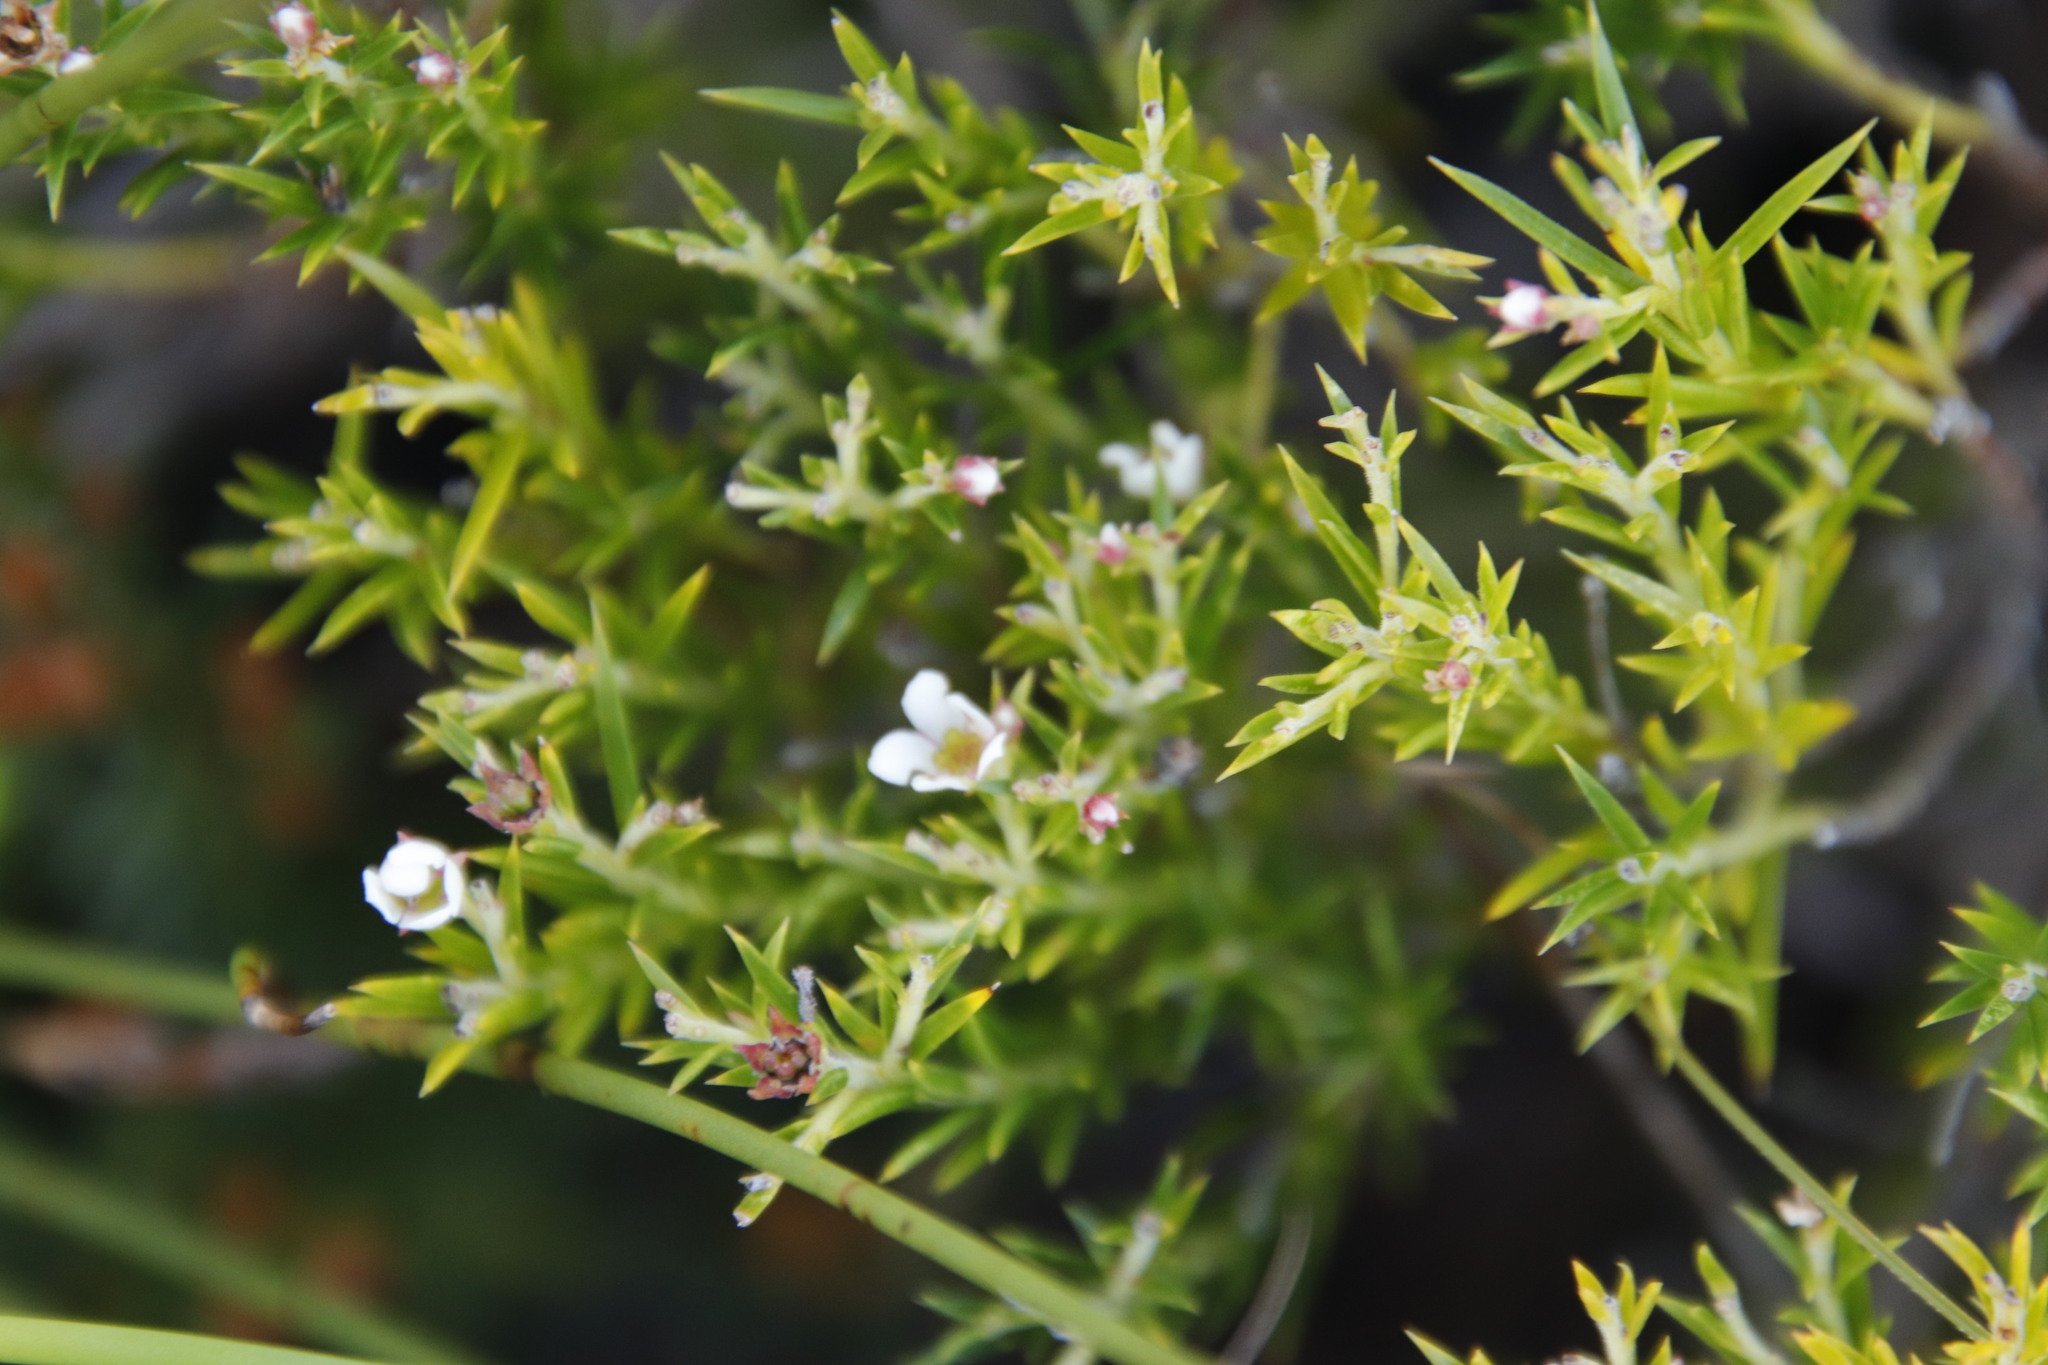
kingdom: Plantae
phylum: Tracheophyta
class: Magnoliopsida
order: Sapindales
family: Rutaceae
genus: Diosma
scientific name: Diosma hirsuta
